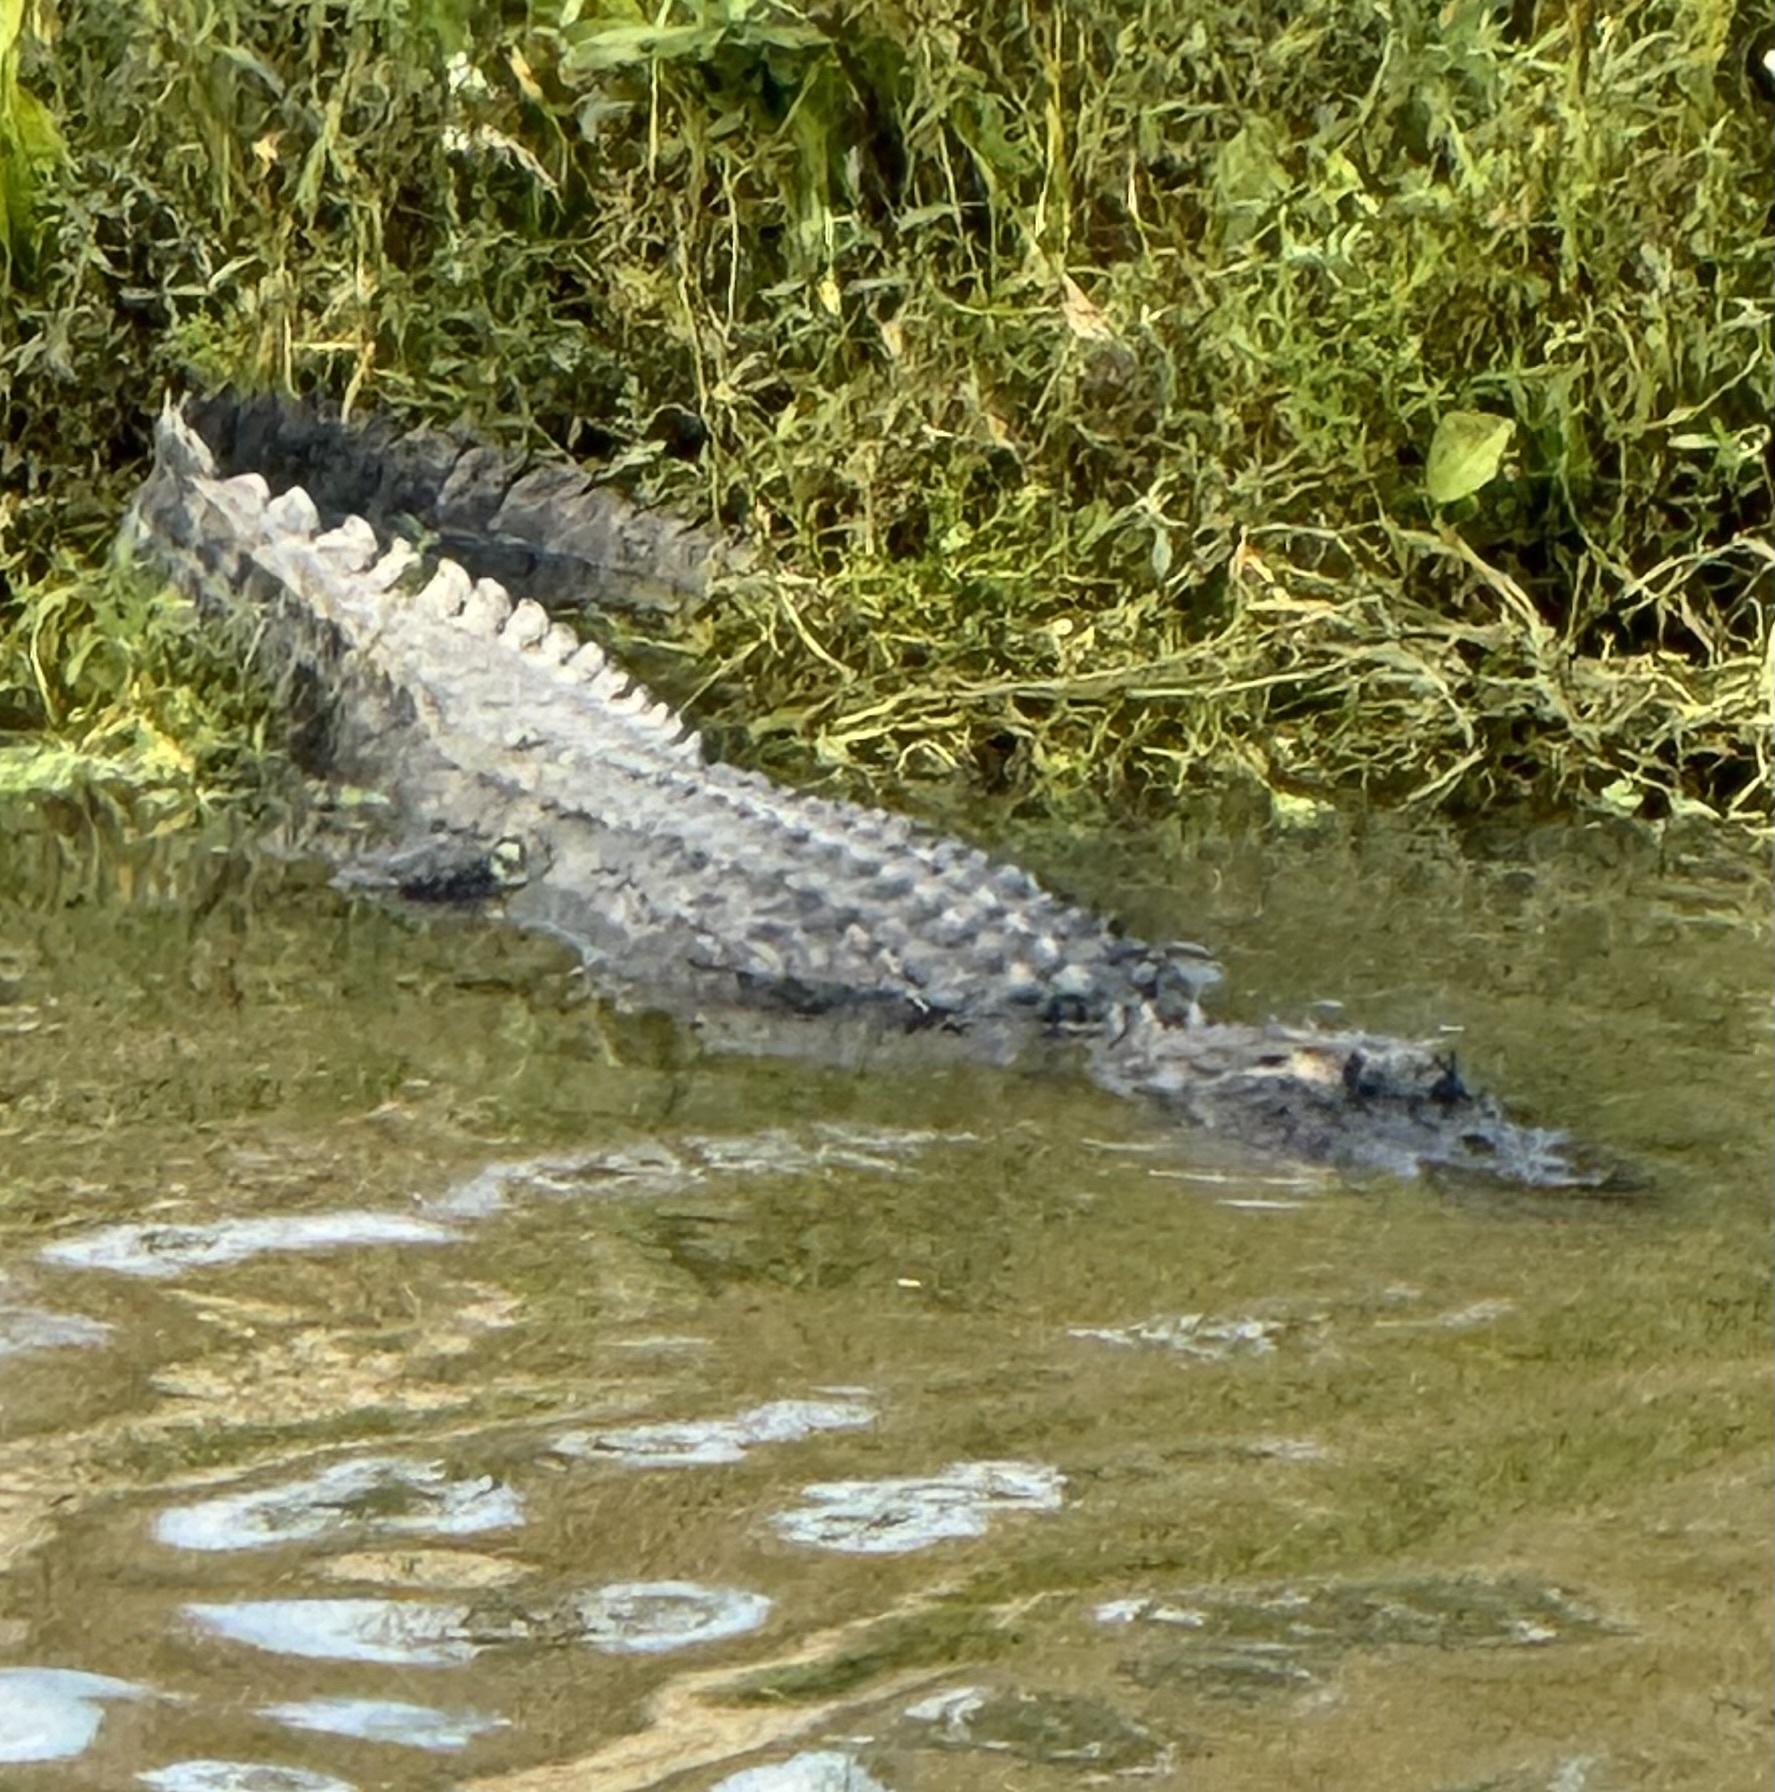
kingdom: Animalia
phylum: Chordata
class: Crocodylia
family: Alligatoridae
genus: Alligator
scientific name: Alligator mississippiensis
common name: American alligator
